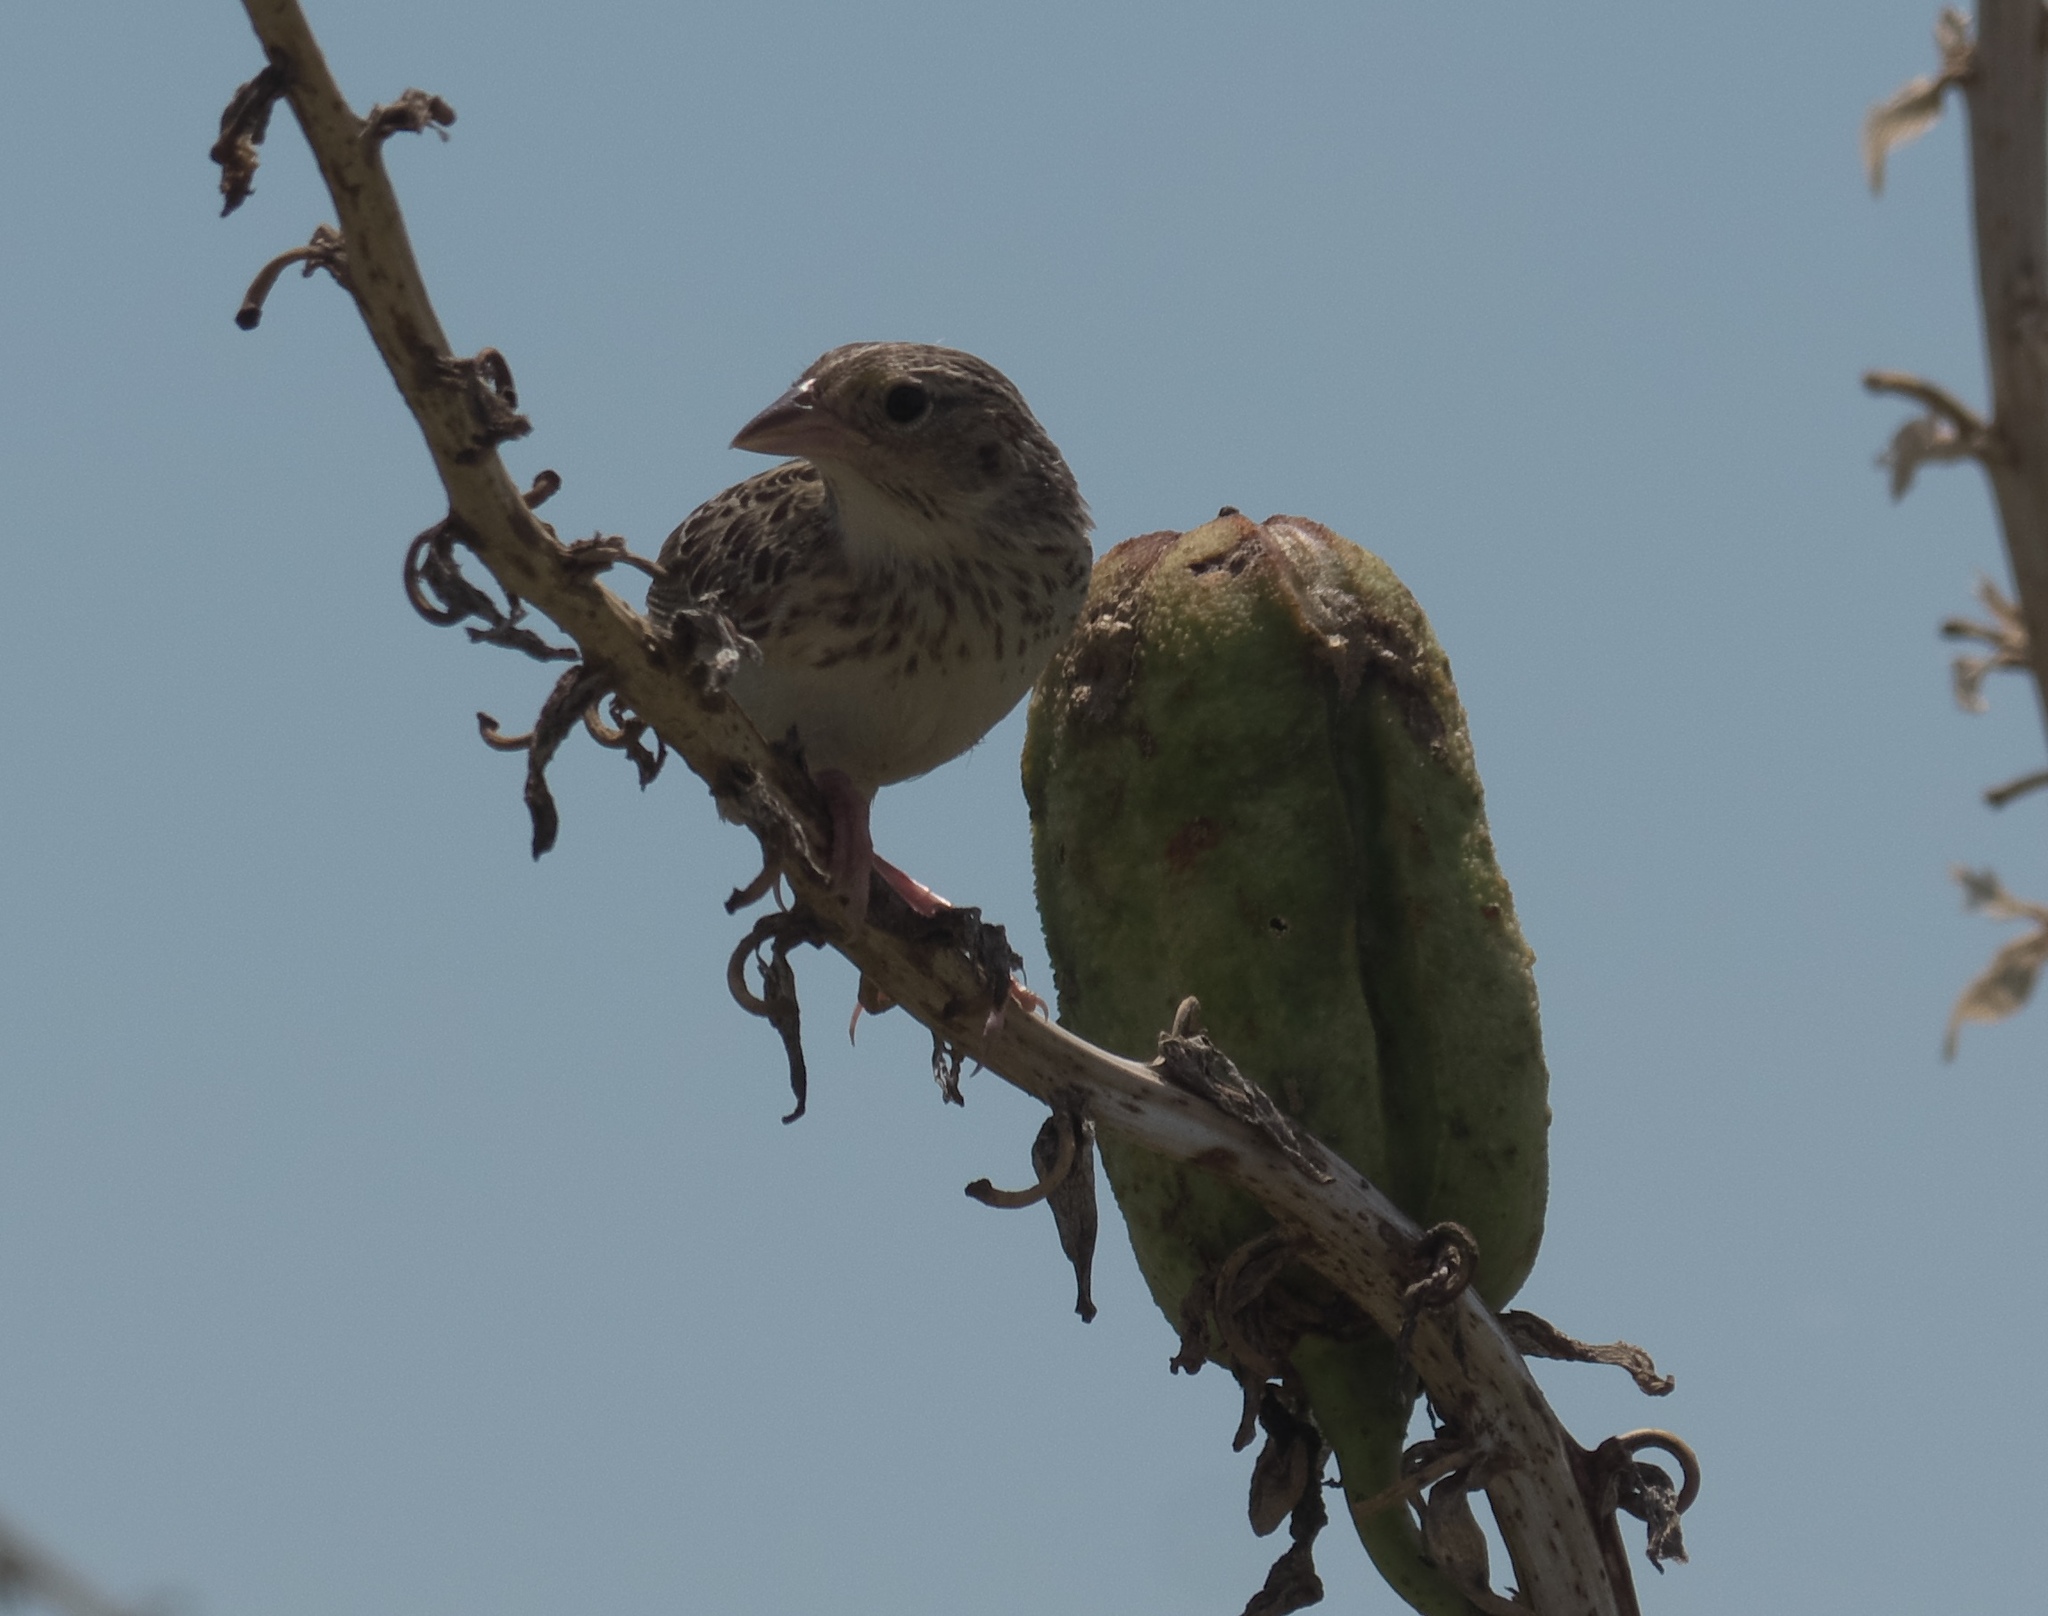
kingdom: Animalia
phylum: Chordata
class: Aves
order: Passeriformes
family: Passerellidae
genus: Ammodramus
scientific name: Ammodramus savannarum
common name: Grasshopper sparrow
